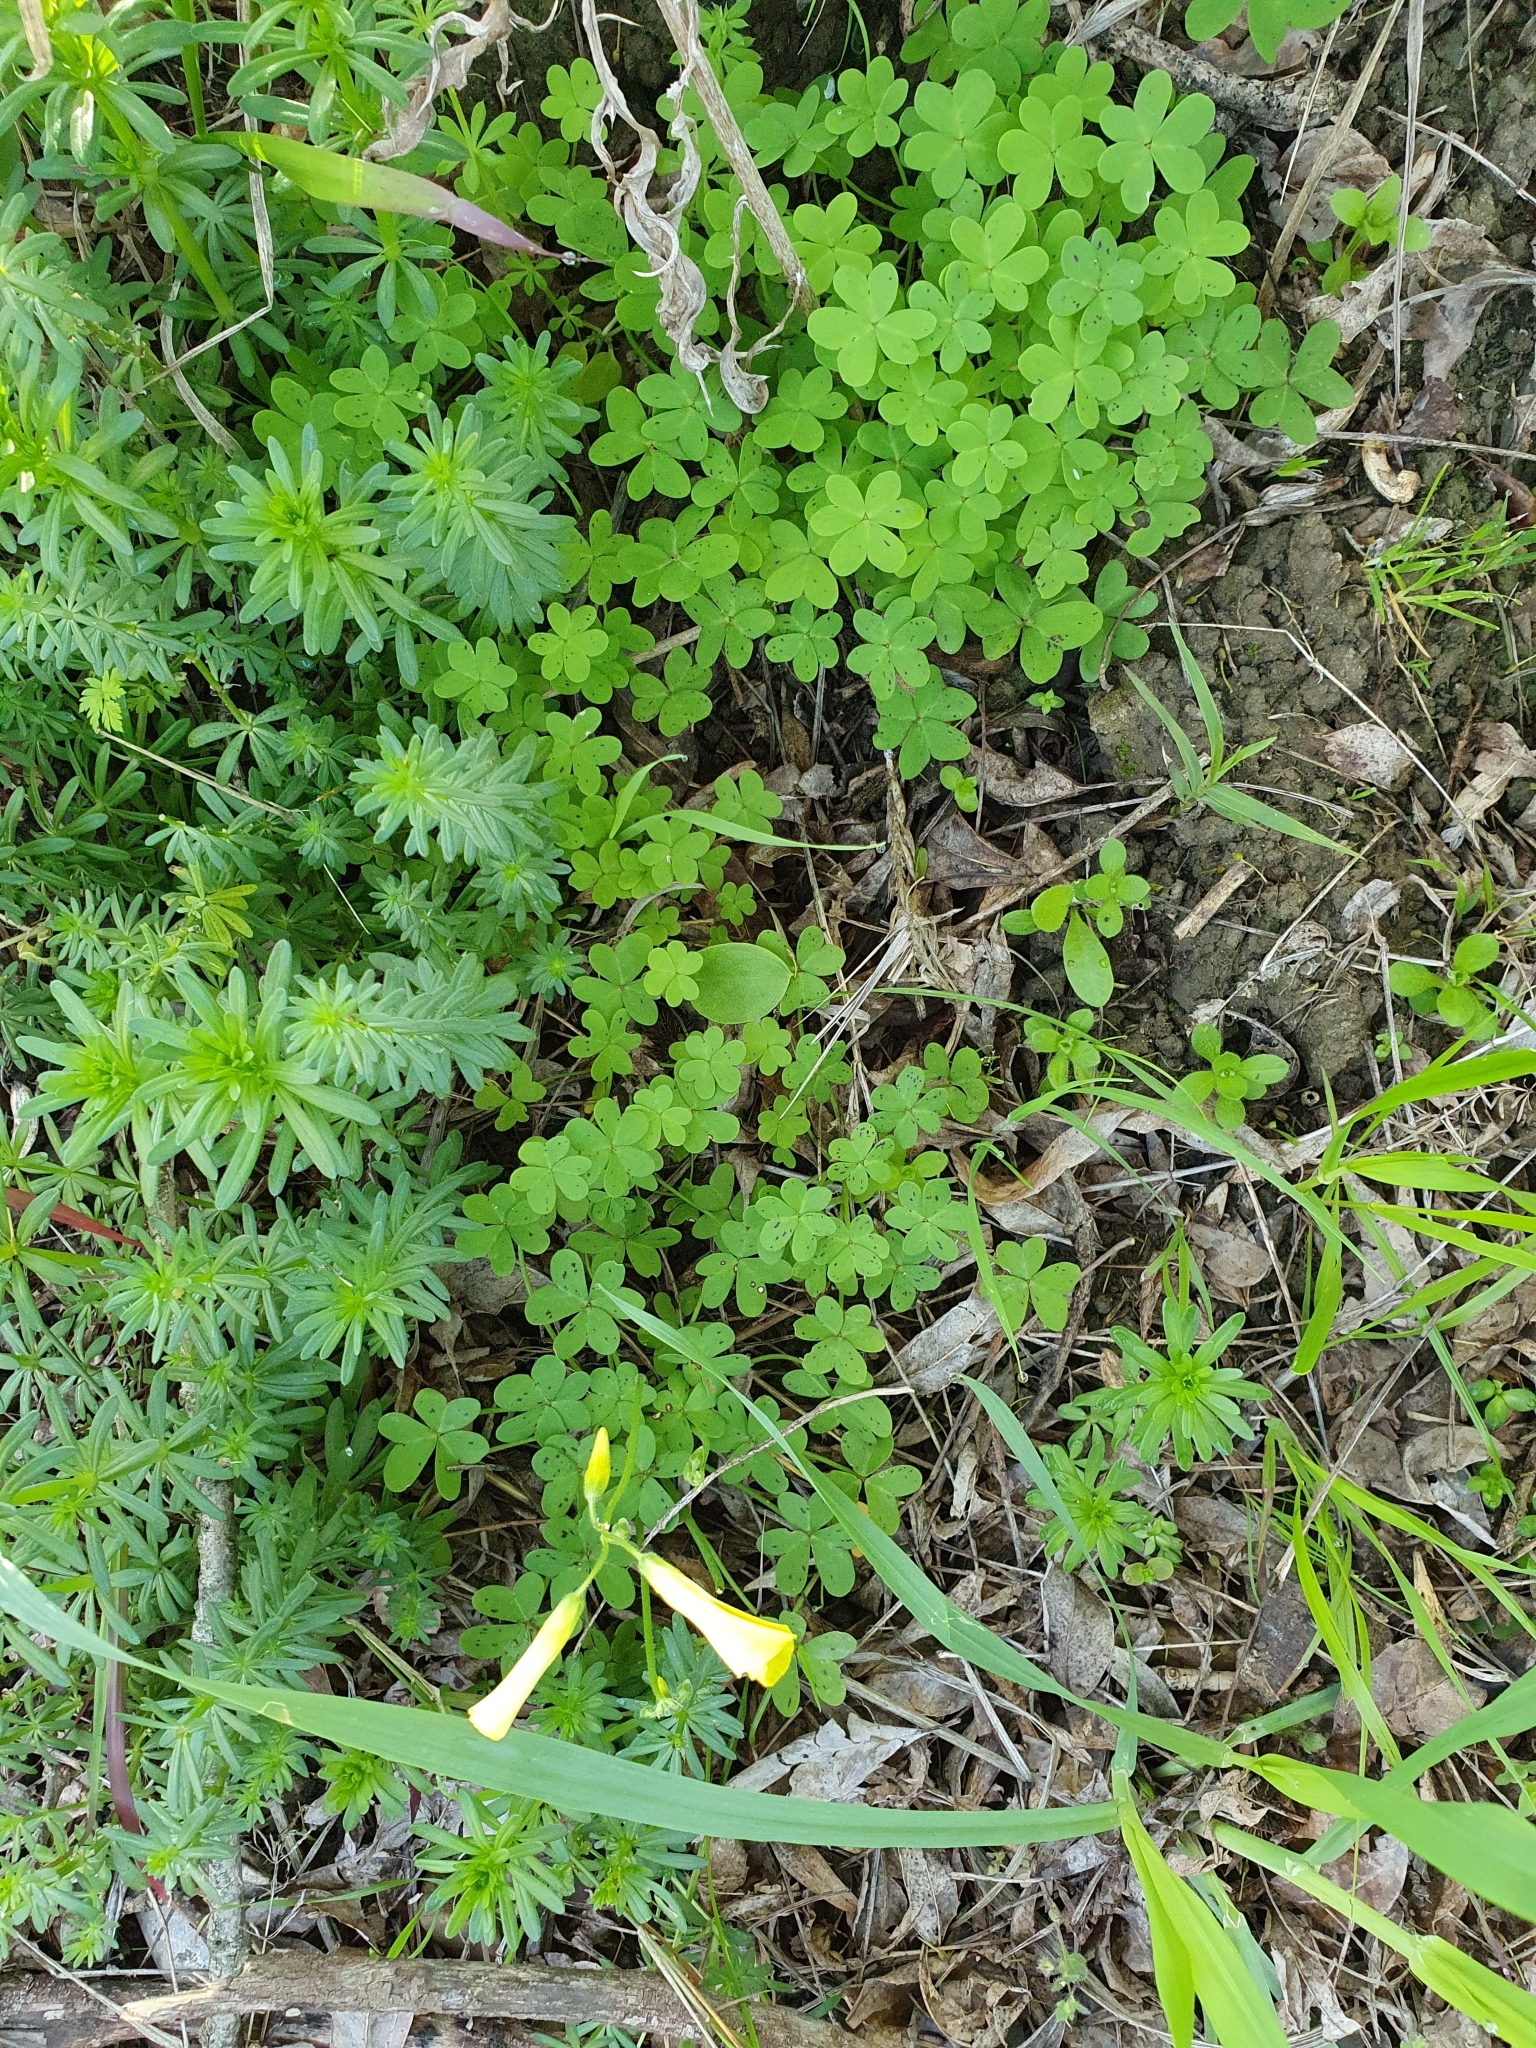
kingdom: Plantae
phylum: Tracheophyta
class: Magnoliopsida
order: Oxalidales
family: Oxalidaceae
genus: Oxalis
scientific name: Oxalis pes-caprae
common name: Bermuda-buttercup
